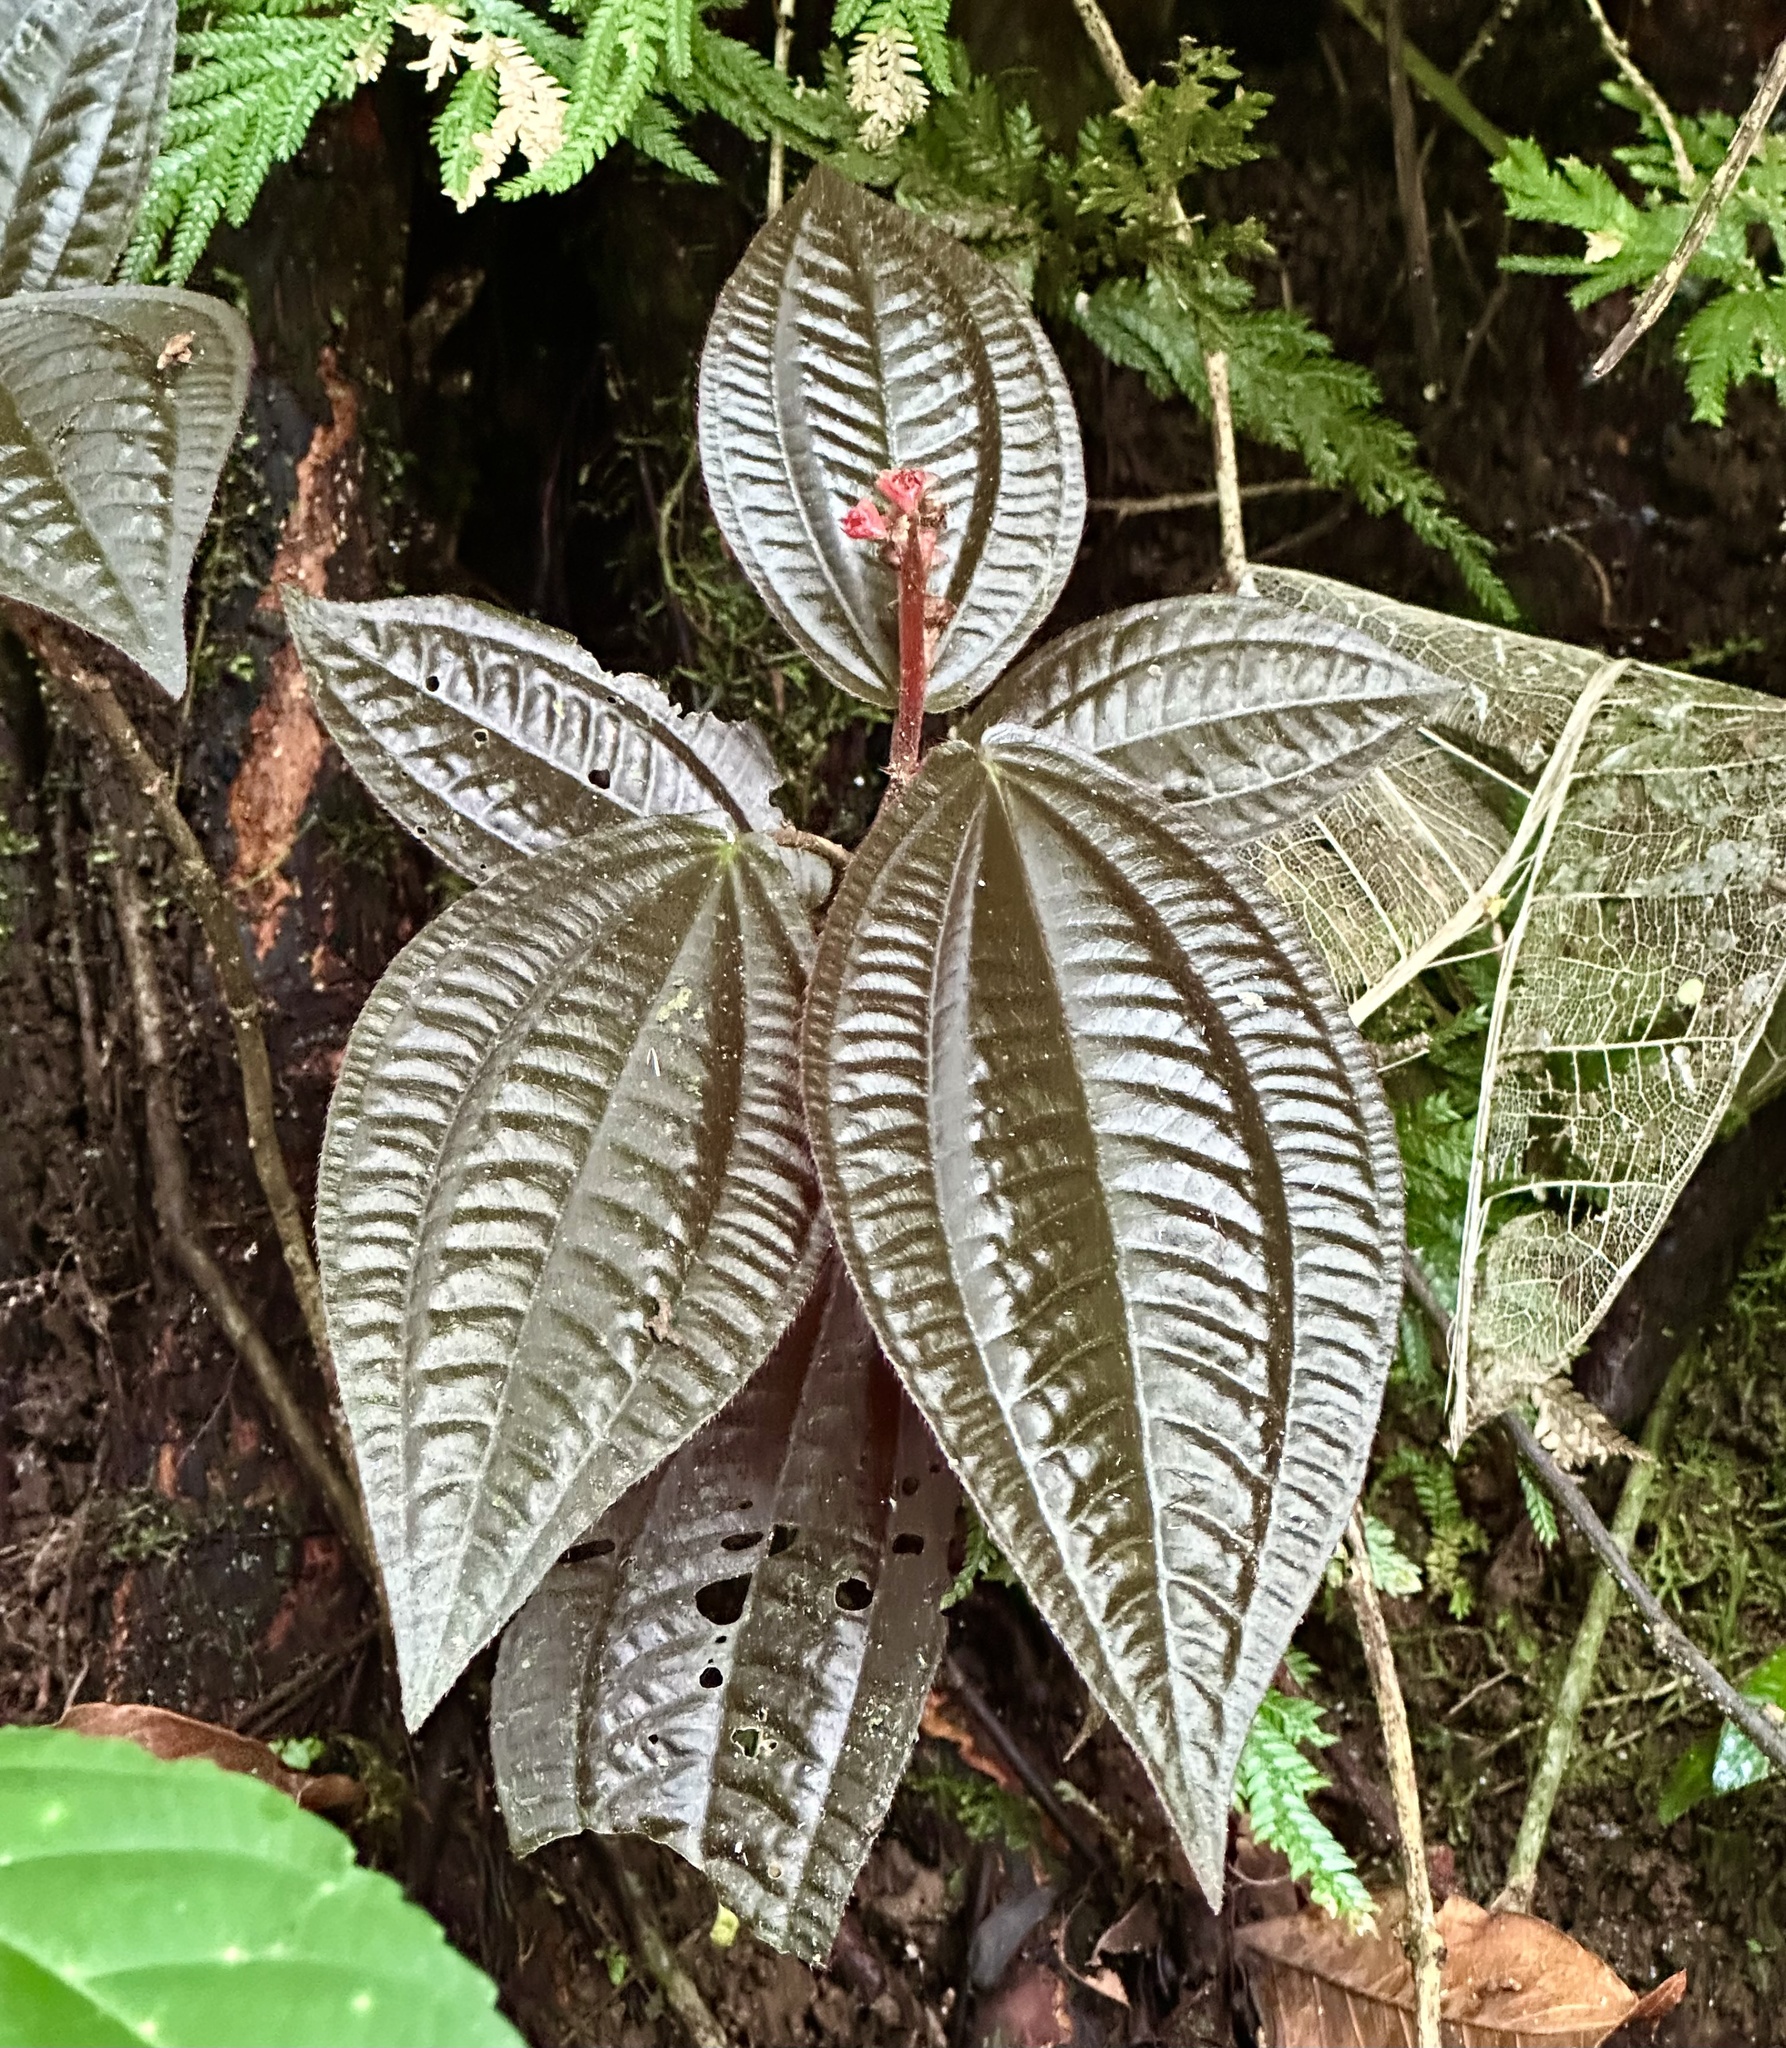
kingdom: Plantae
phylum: Tracheophyta
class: Magnoliopsida
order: Myrtales
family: Melastomataceae
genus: Triolena
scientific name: Triolena hirsuta
